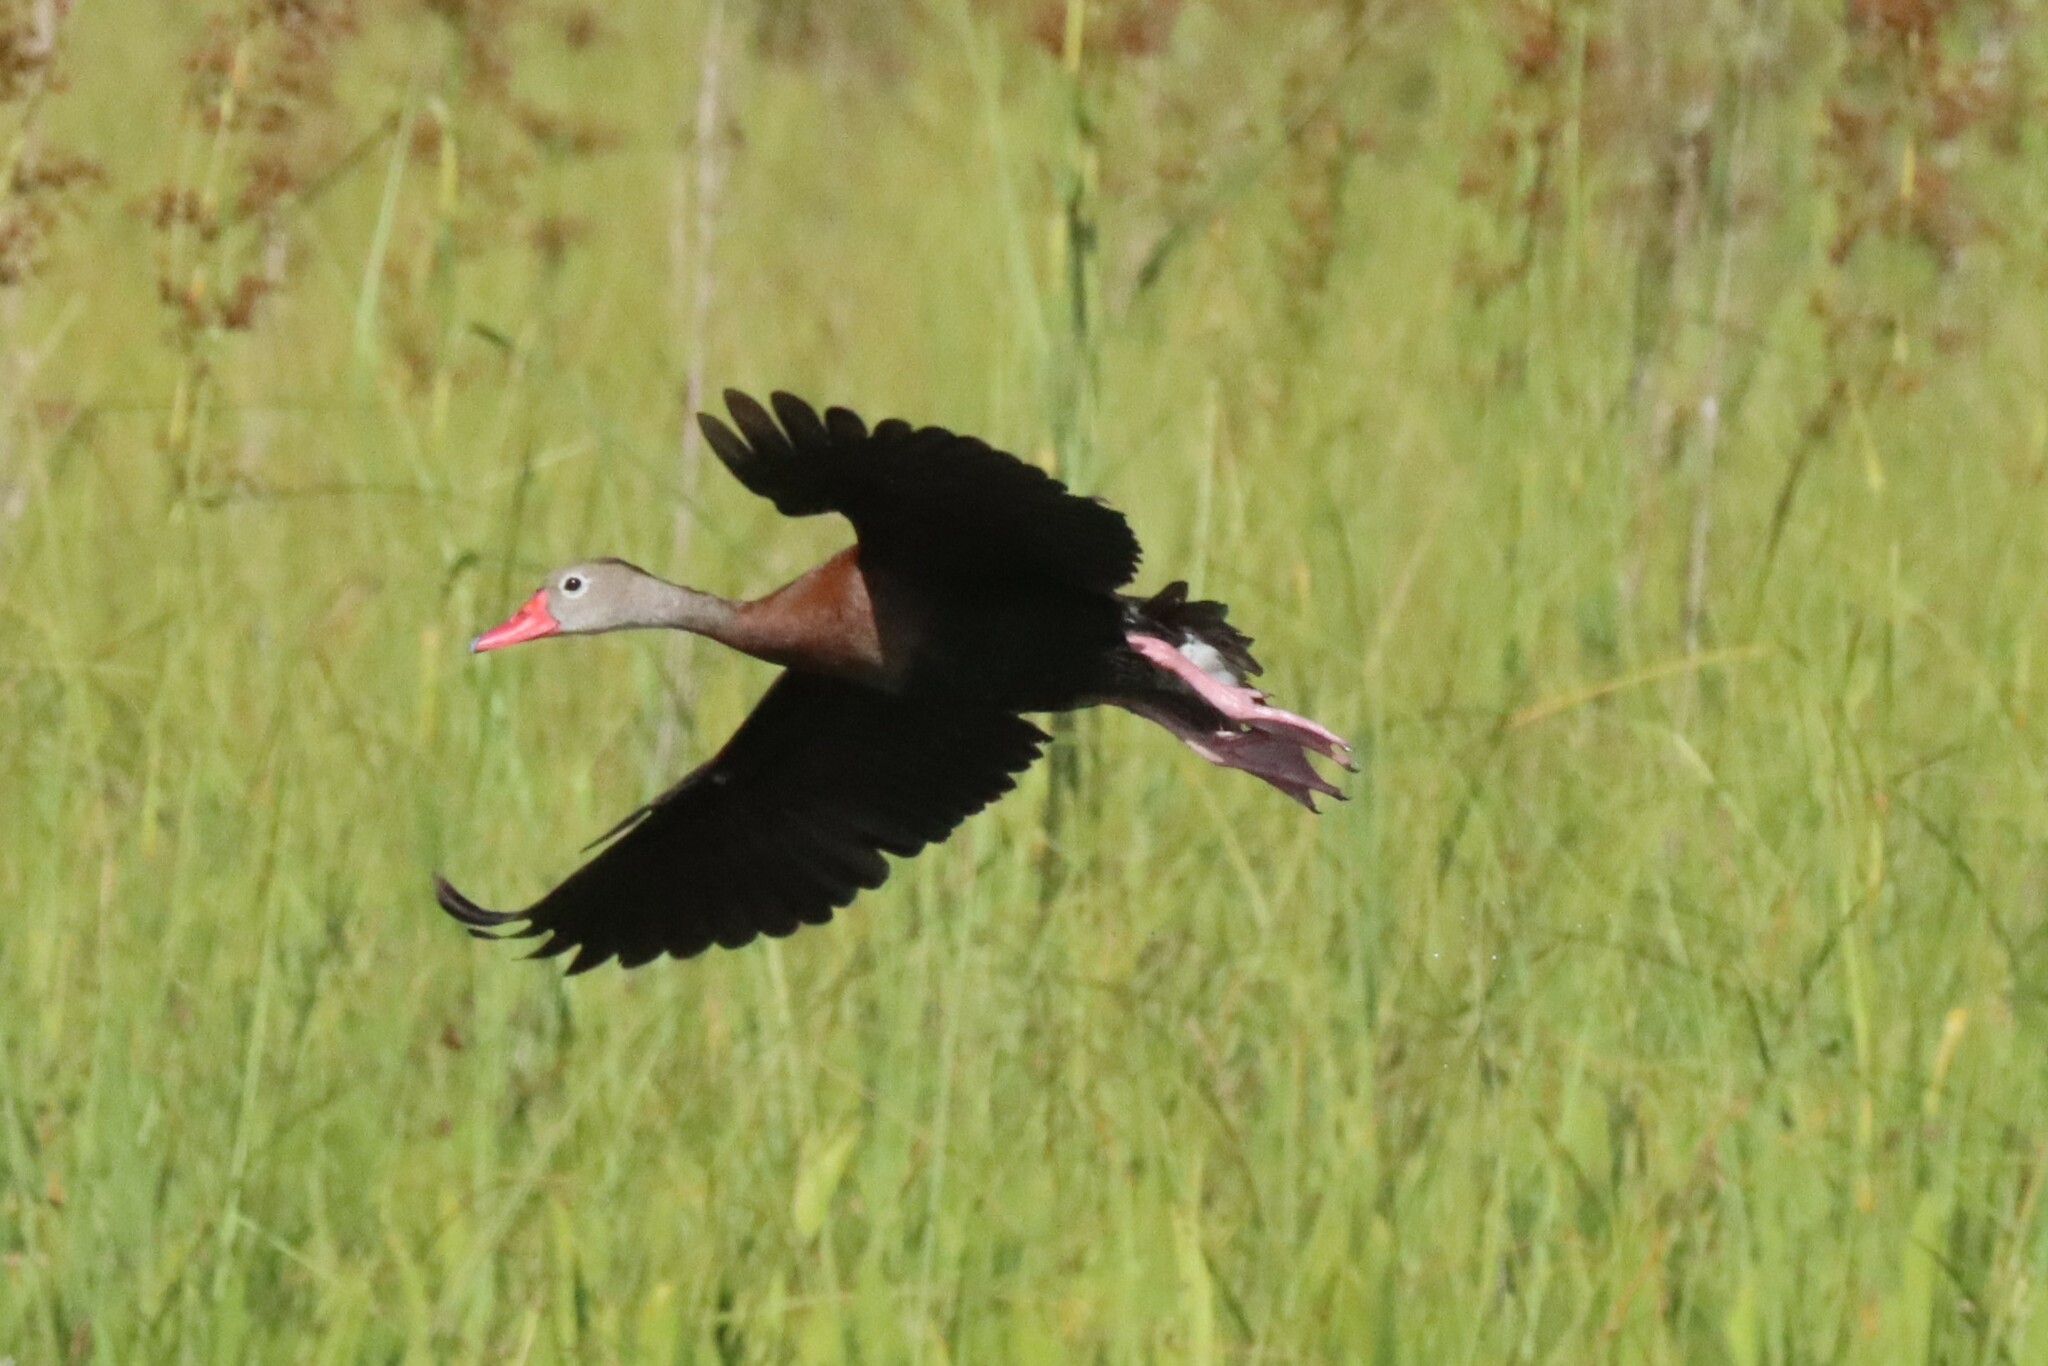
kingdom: Animalia
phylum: Chordata
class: Aves
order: Anseriformes
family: Anatidae
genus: Dendrocygna
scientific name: Dendrocygna autumnalis
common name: Black-bellied whistling duck
